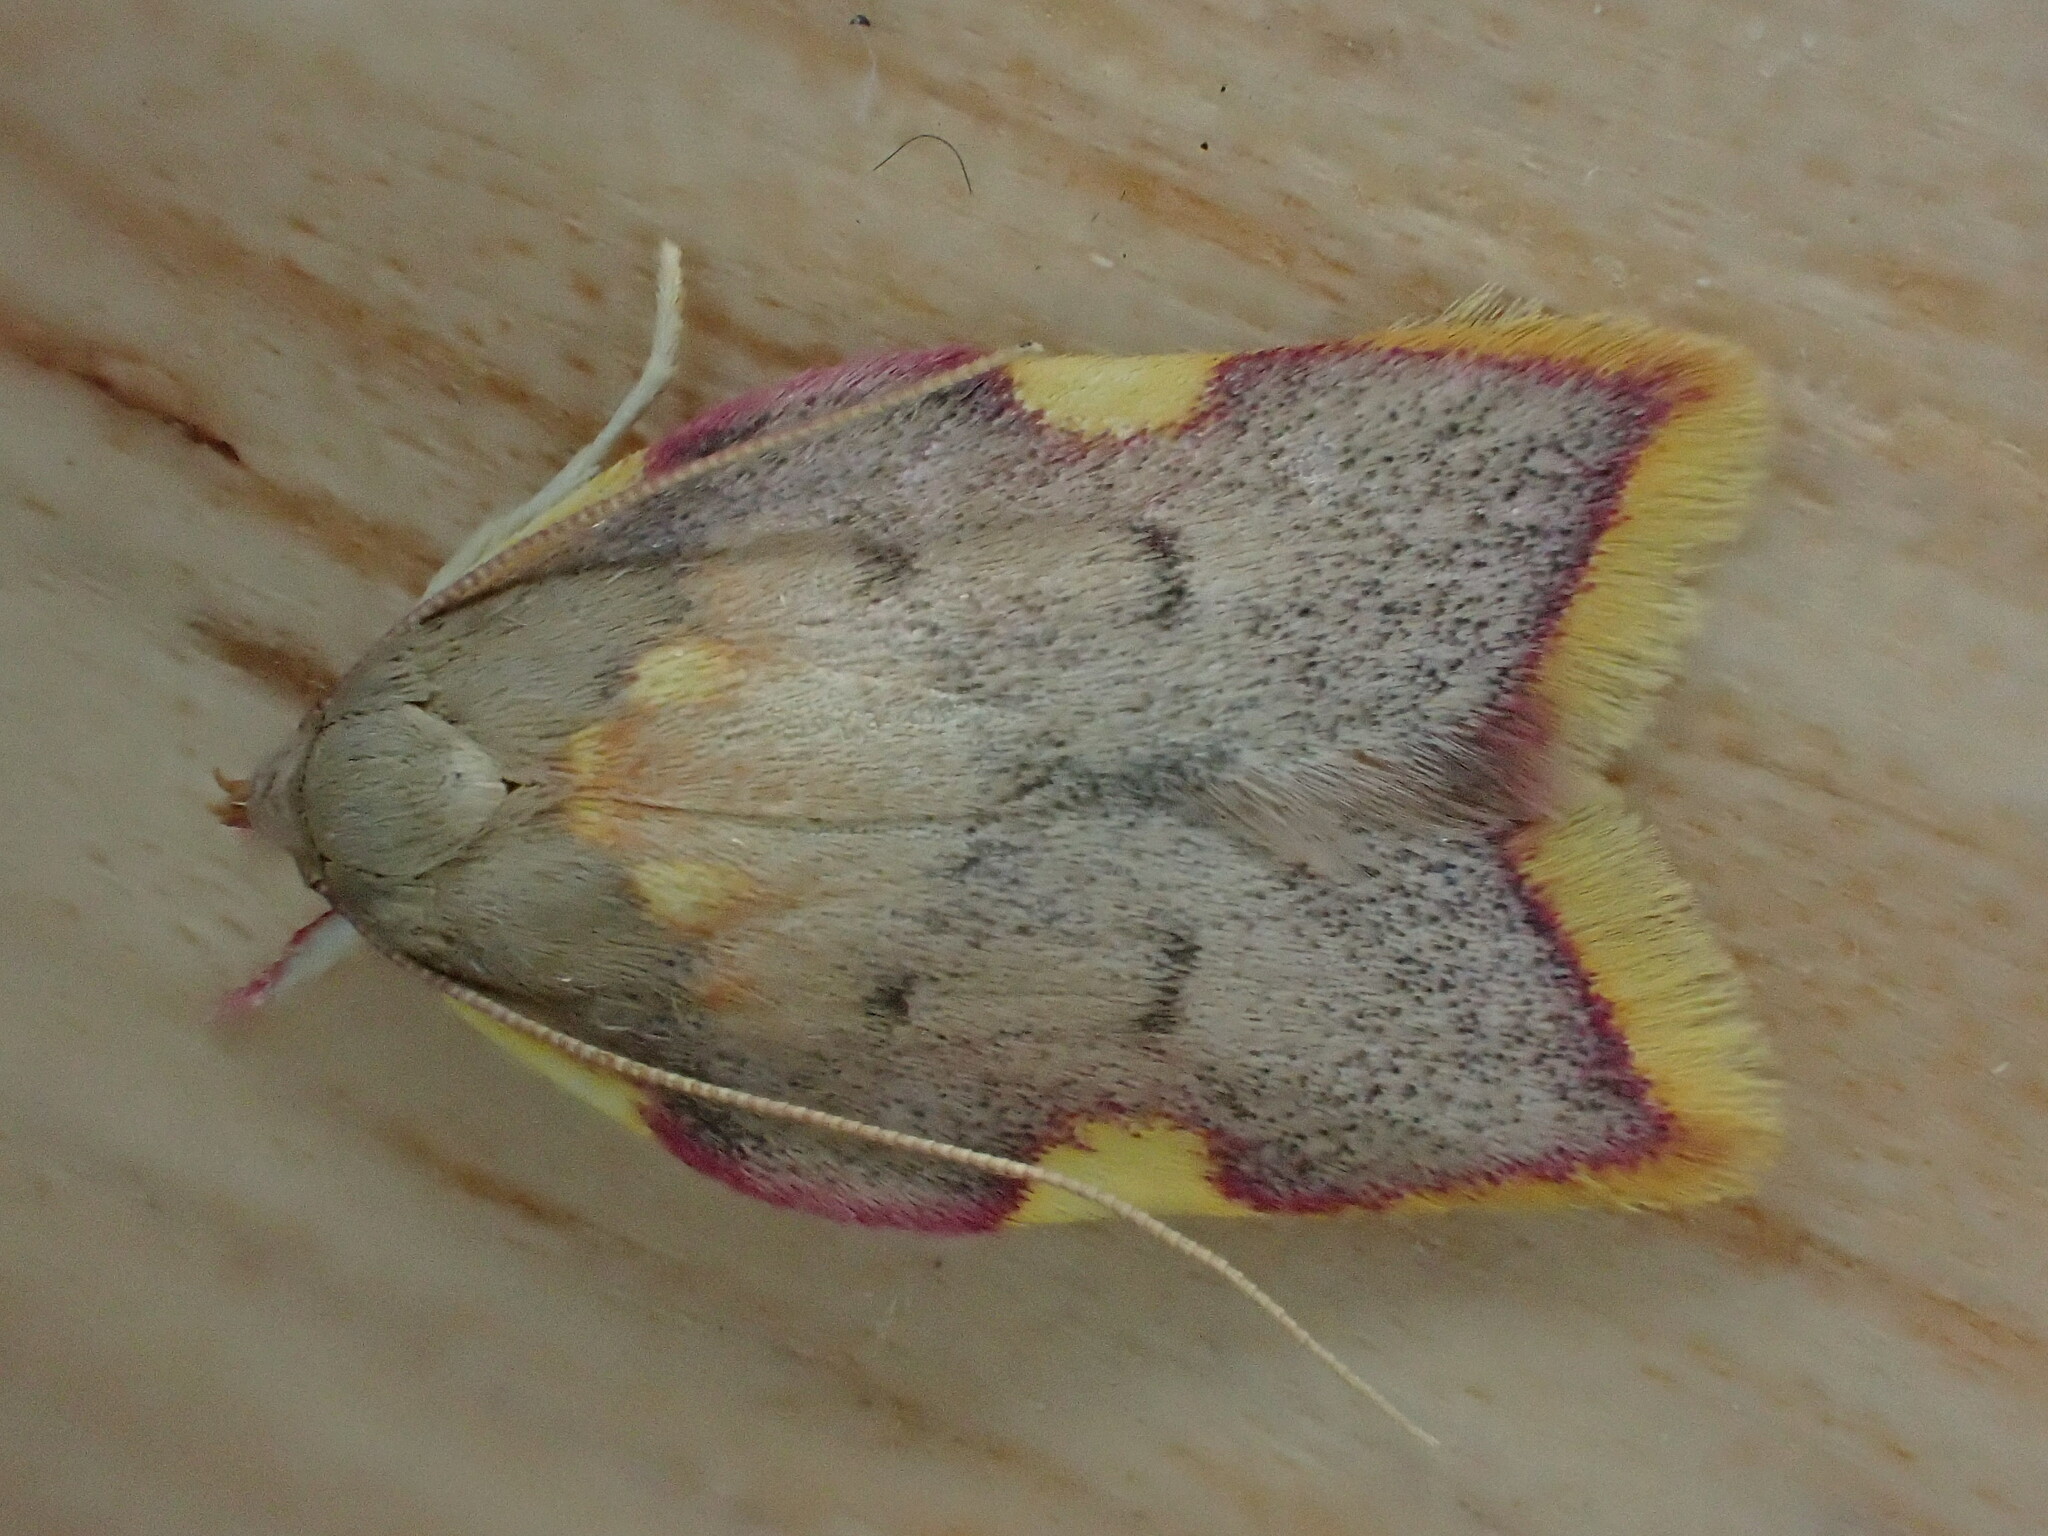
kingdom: Animalia
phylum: Arthropoda
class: Insecta
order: Lepidoptera
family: Peleopodidae
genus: Carcina
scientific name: Carcina quercana
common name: Moth
